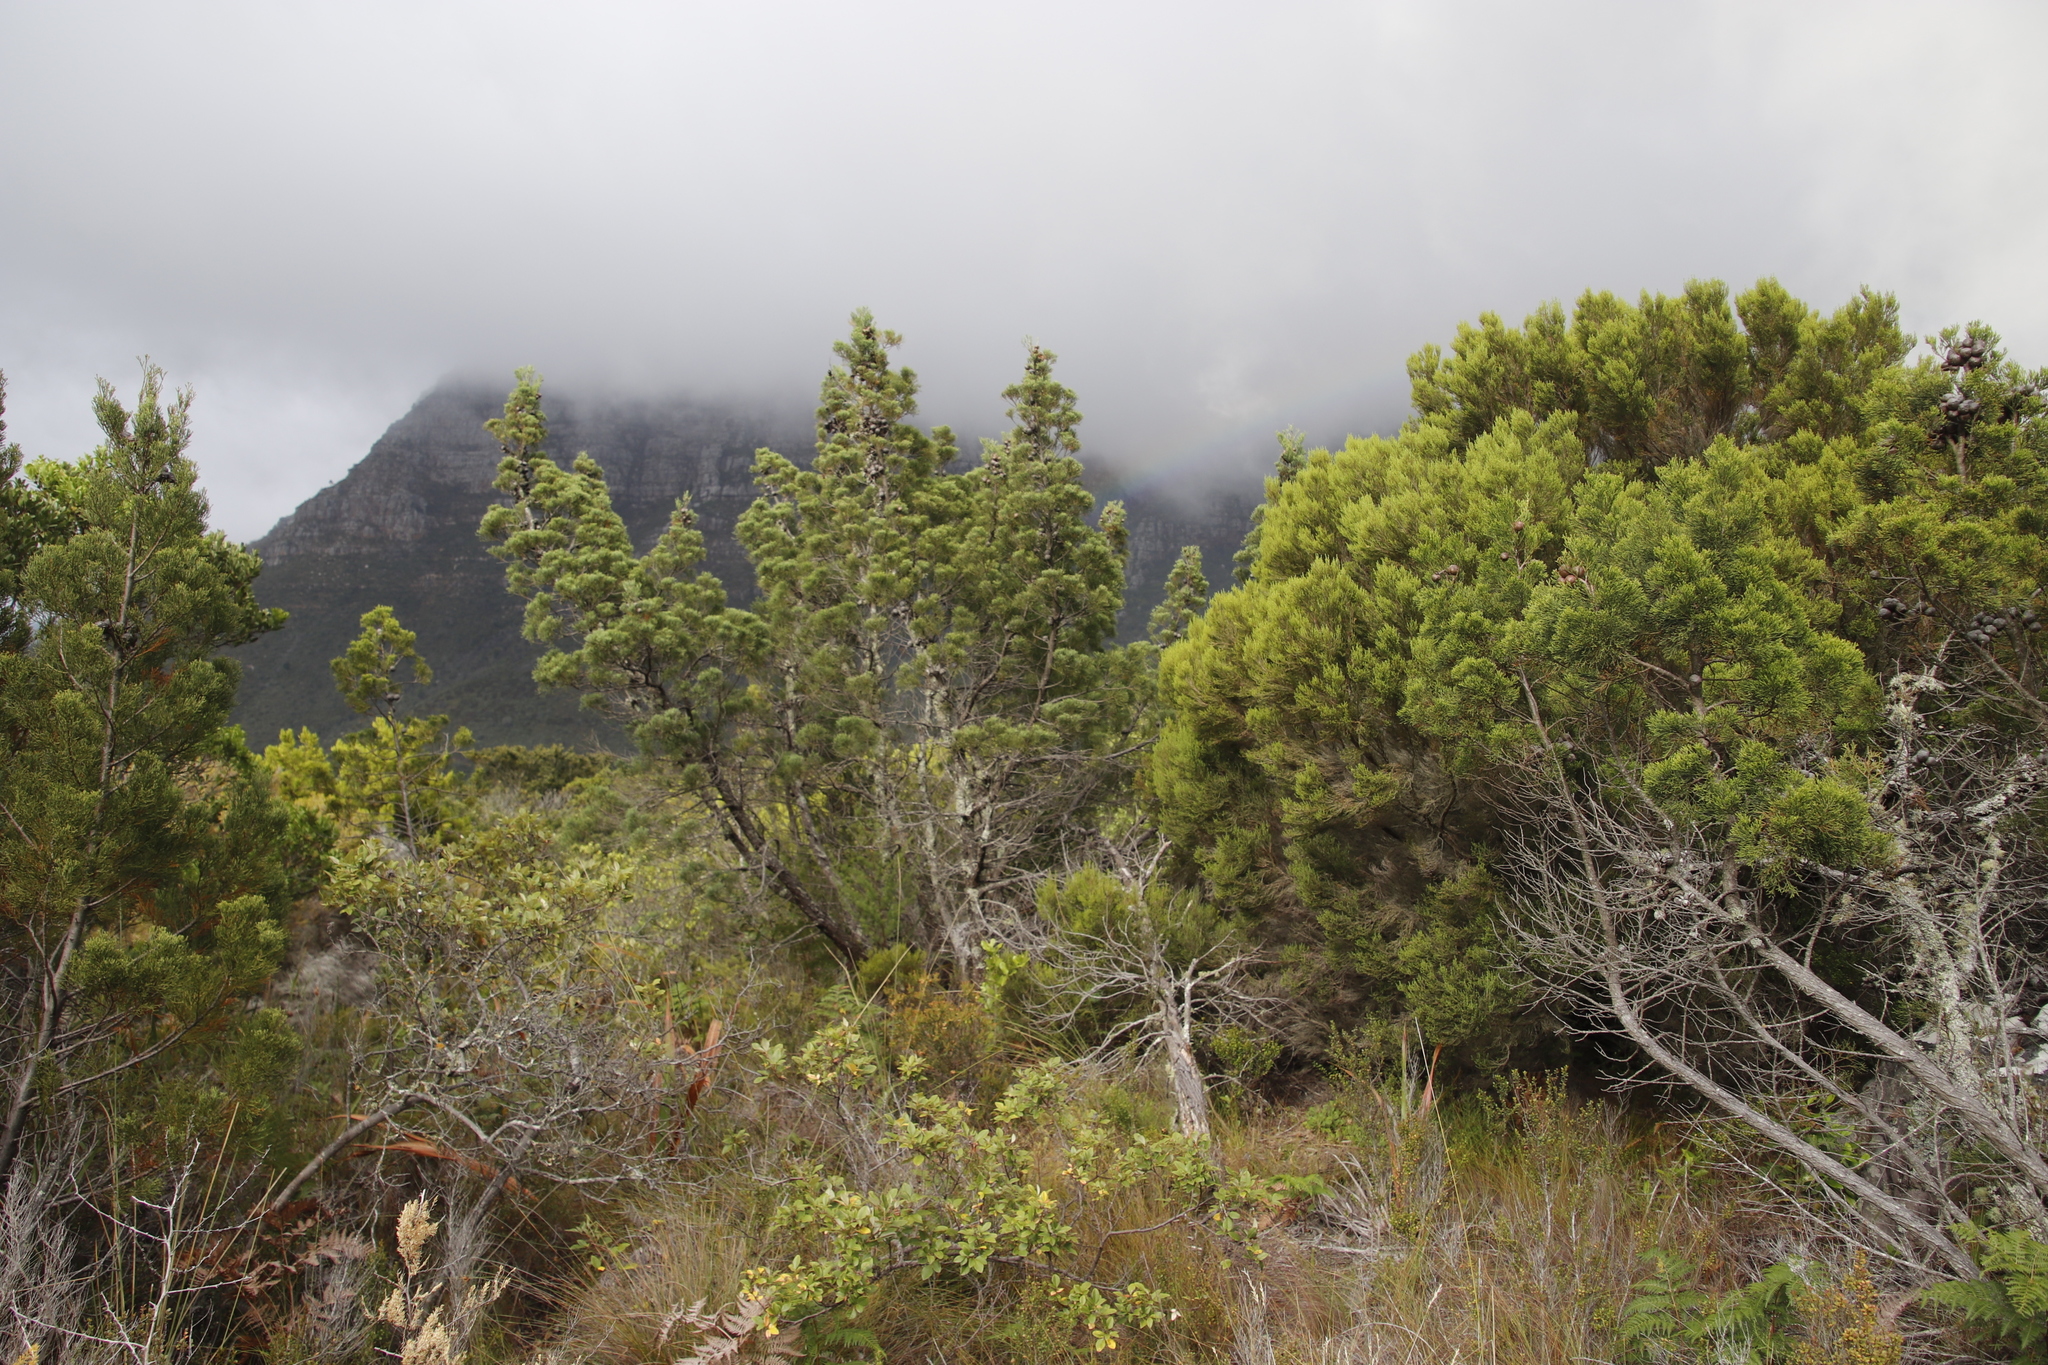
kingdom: Plantae
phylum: Tracheophyta
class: Pinopsida
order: Pinales
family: Cupressaceae
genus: Widdringtonia
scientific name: Widdringtonia nodiflora
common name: Cape cypress
